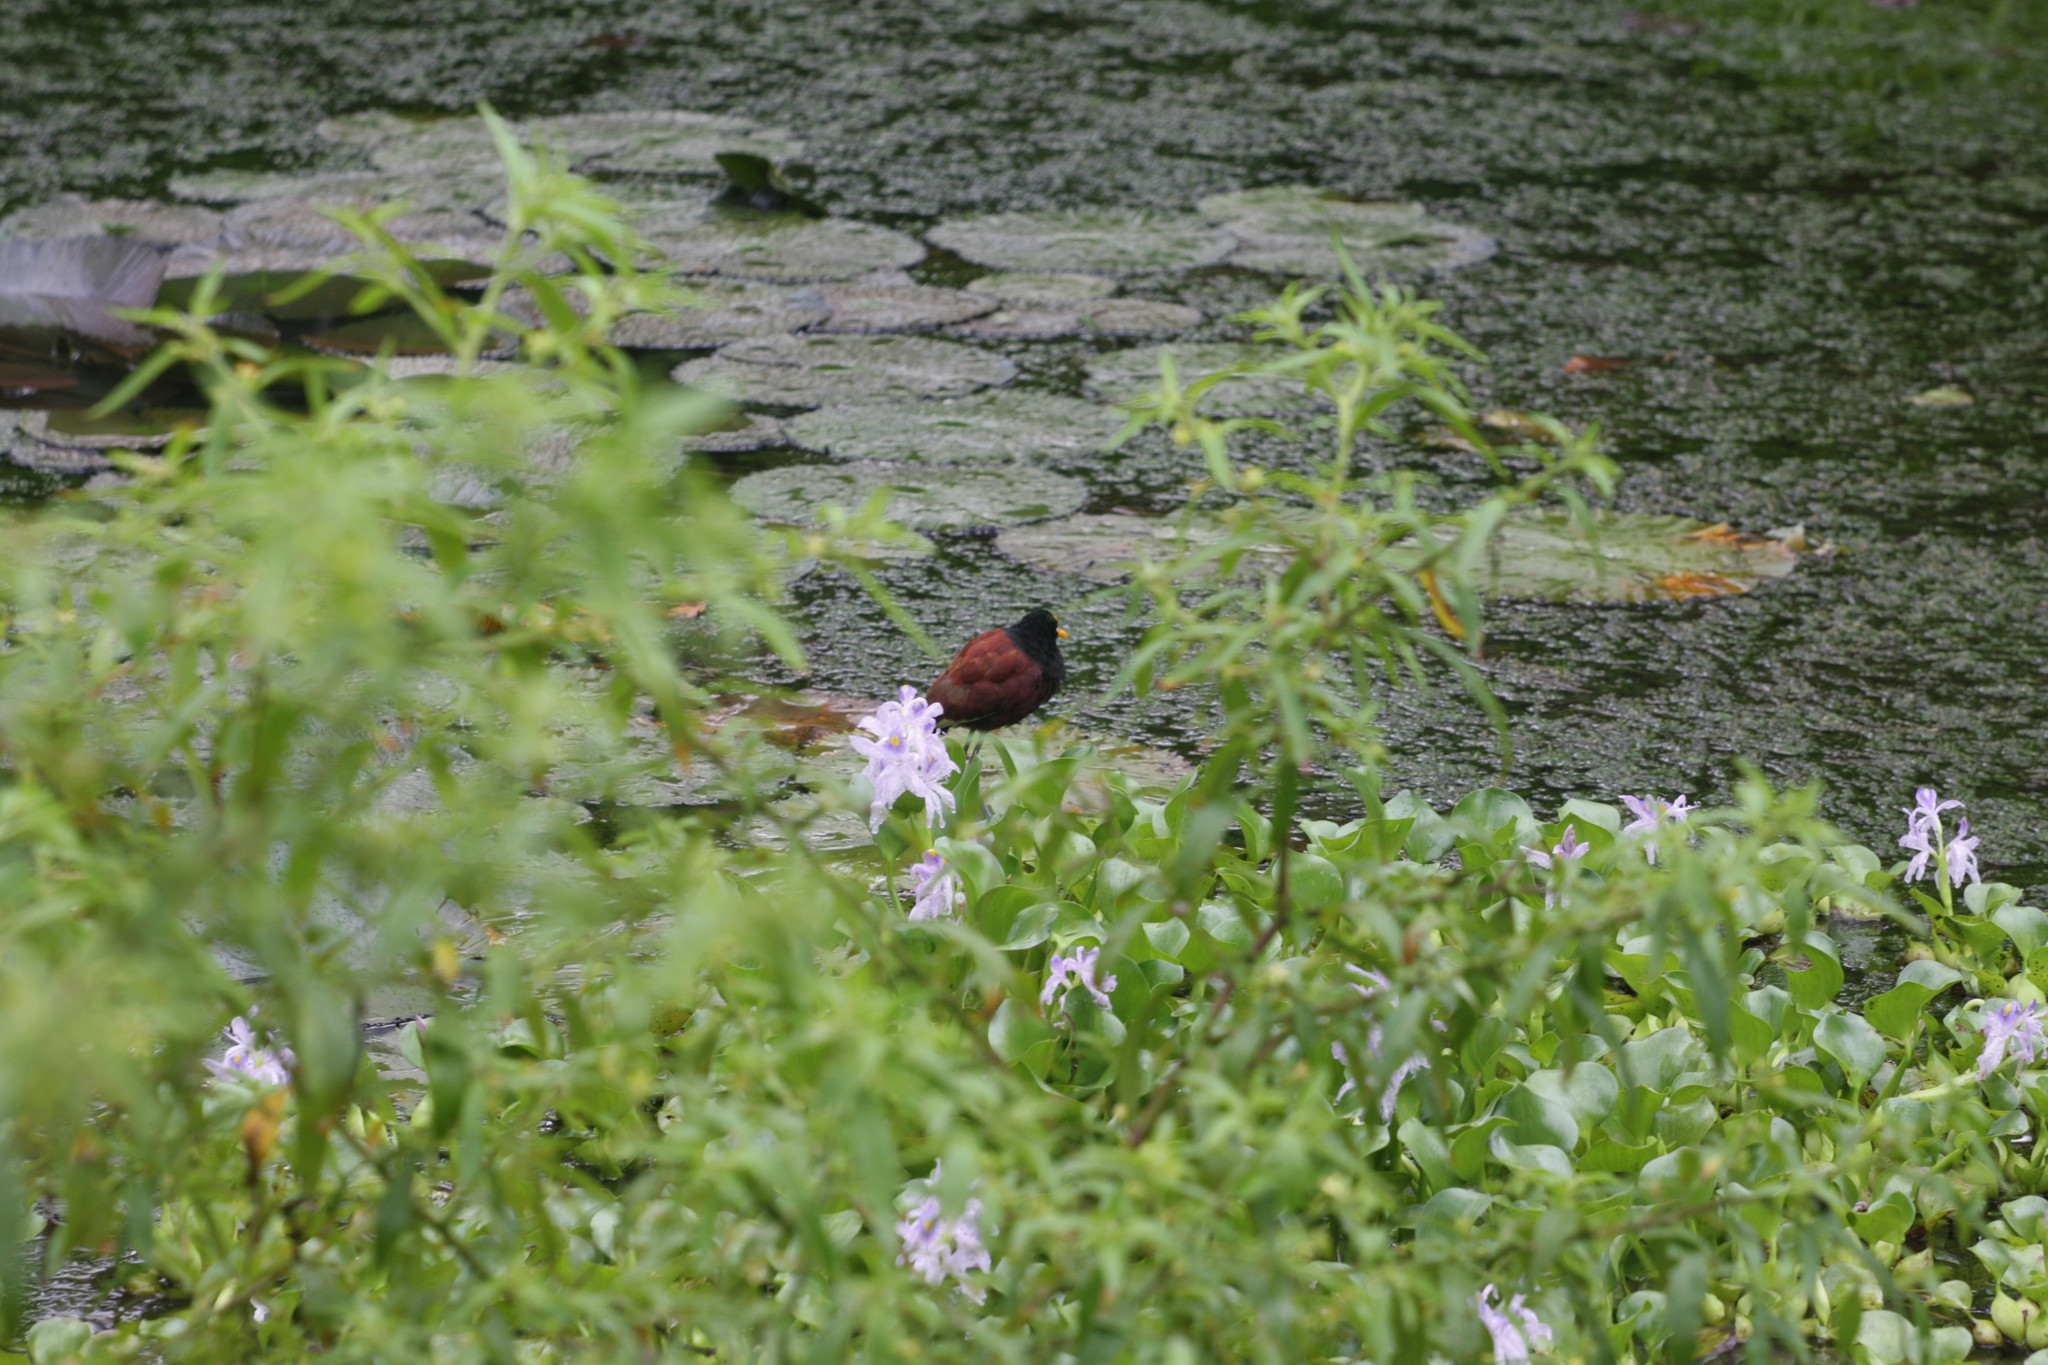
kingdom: Animalia
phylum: Chordata
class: Aves
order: Charadriiformes
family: Jacanidae
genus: Jacana
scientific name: Jacana spinosa
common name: Northern jacana
